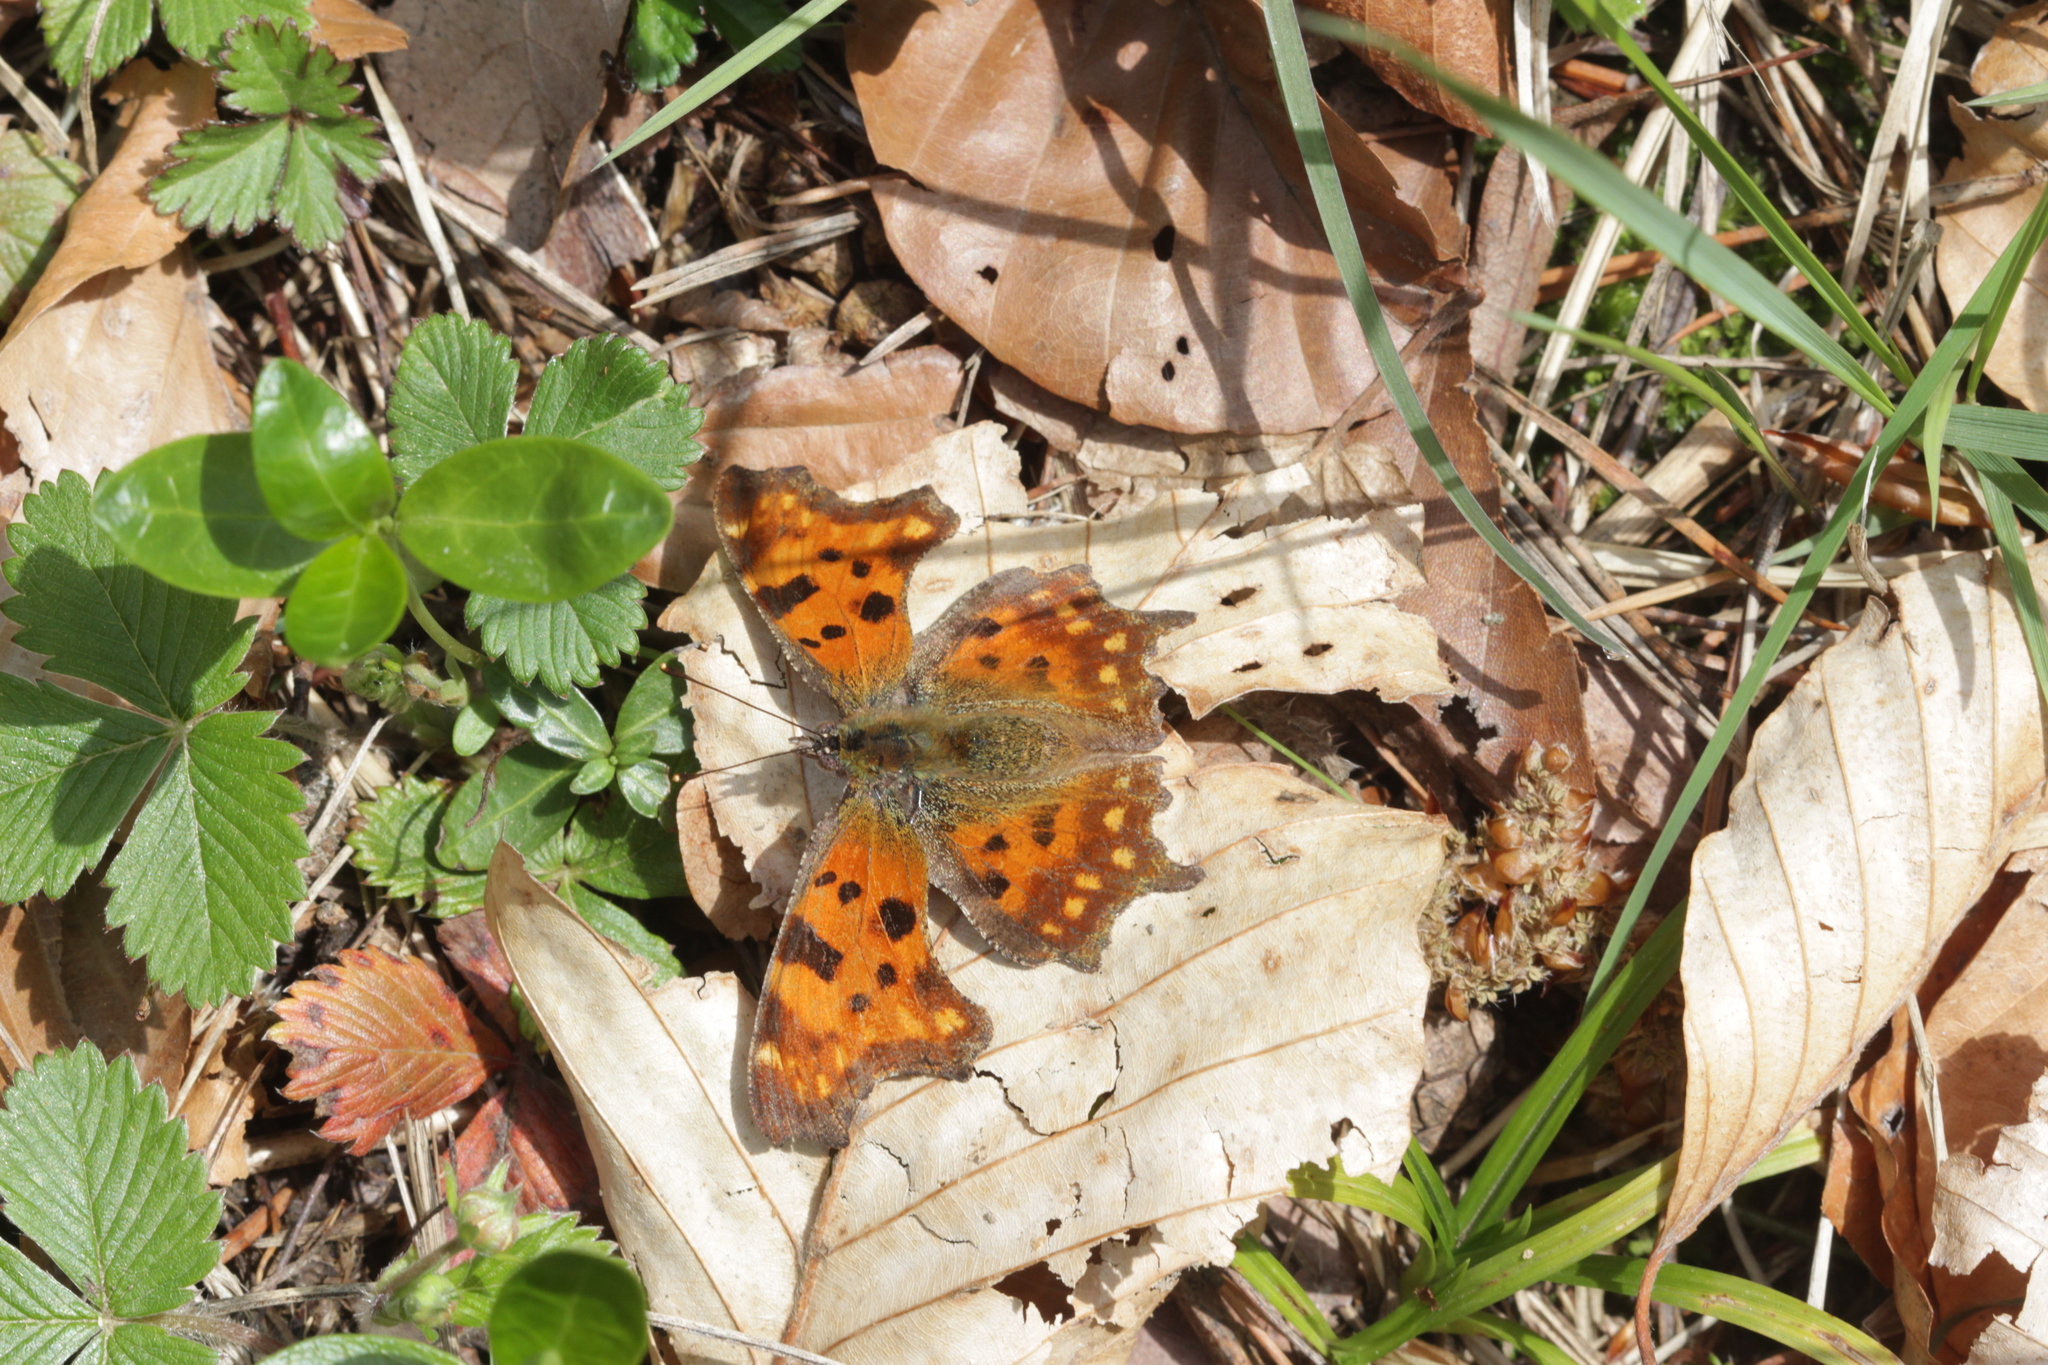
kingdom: Animalia
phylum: Arthropoda
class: Insecta
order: Lepidoptera
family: Nymphalidae
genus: Polygonia
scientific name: Polygonia c-album
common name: Comma
